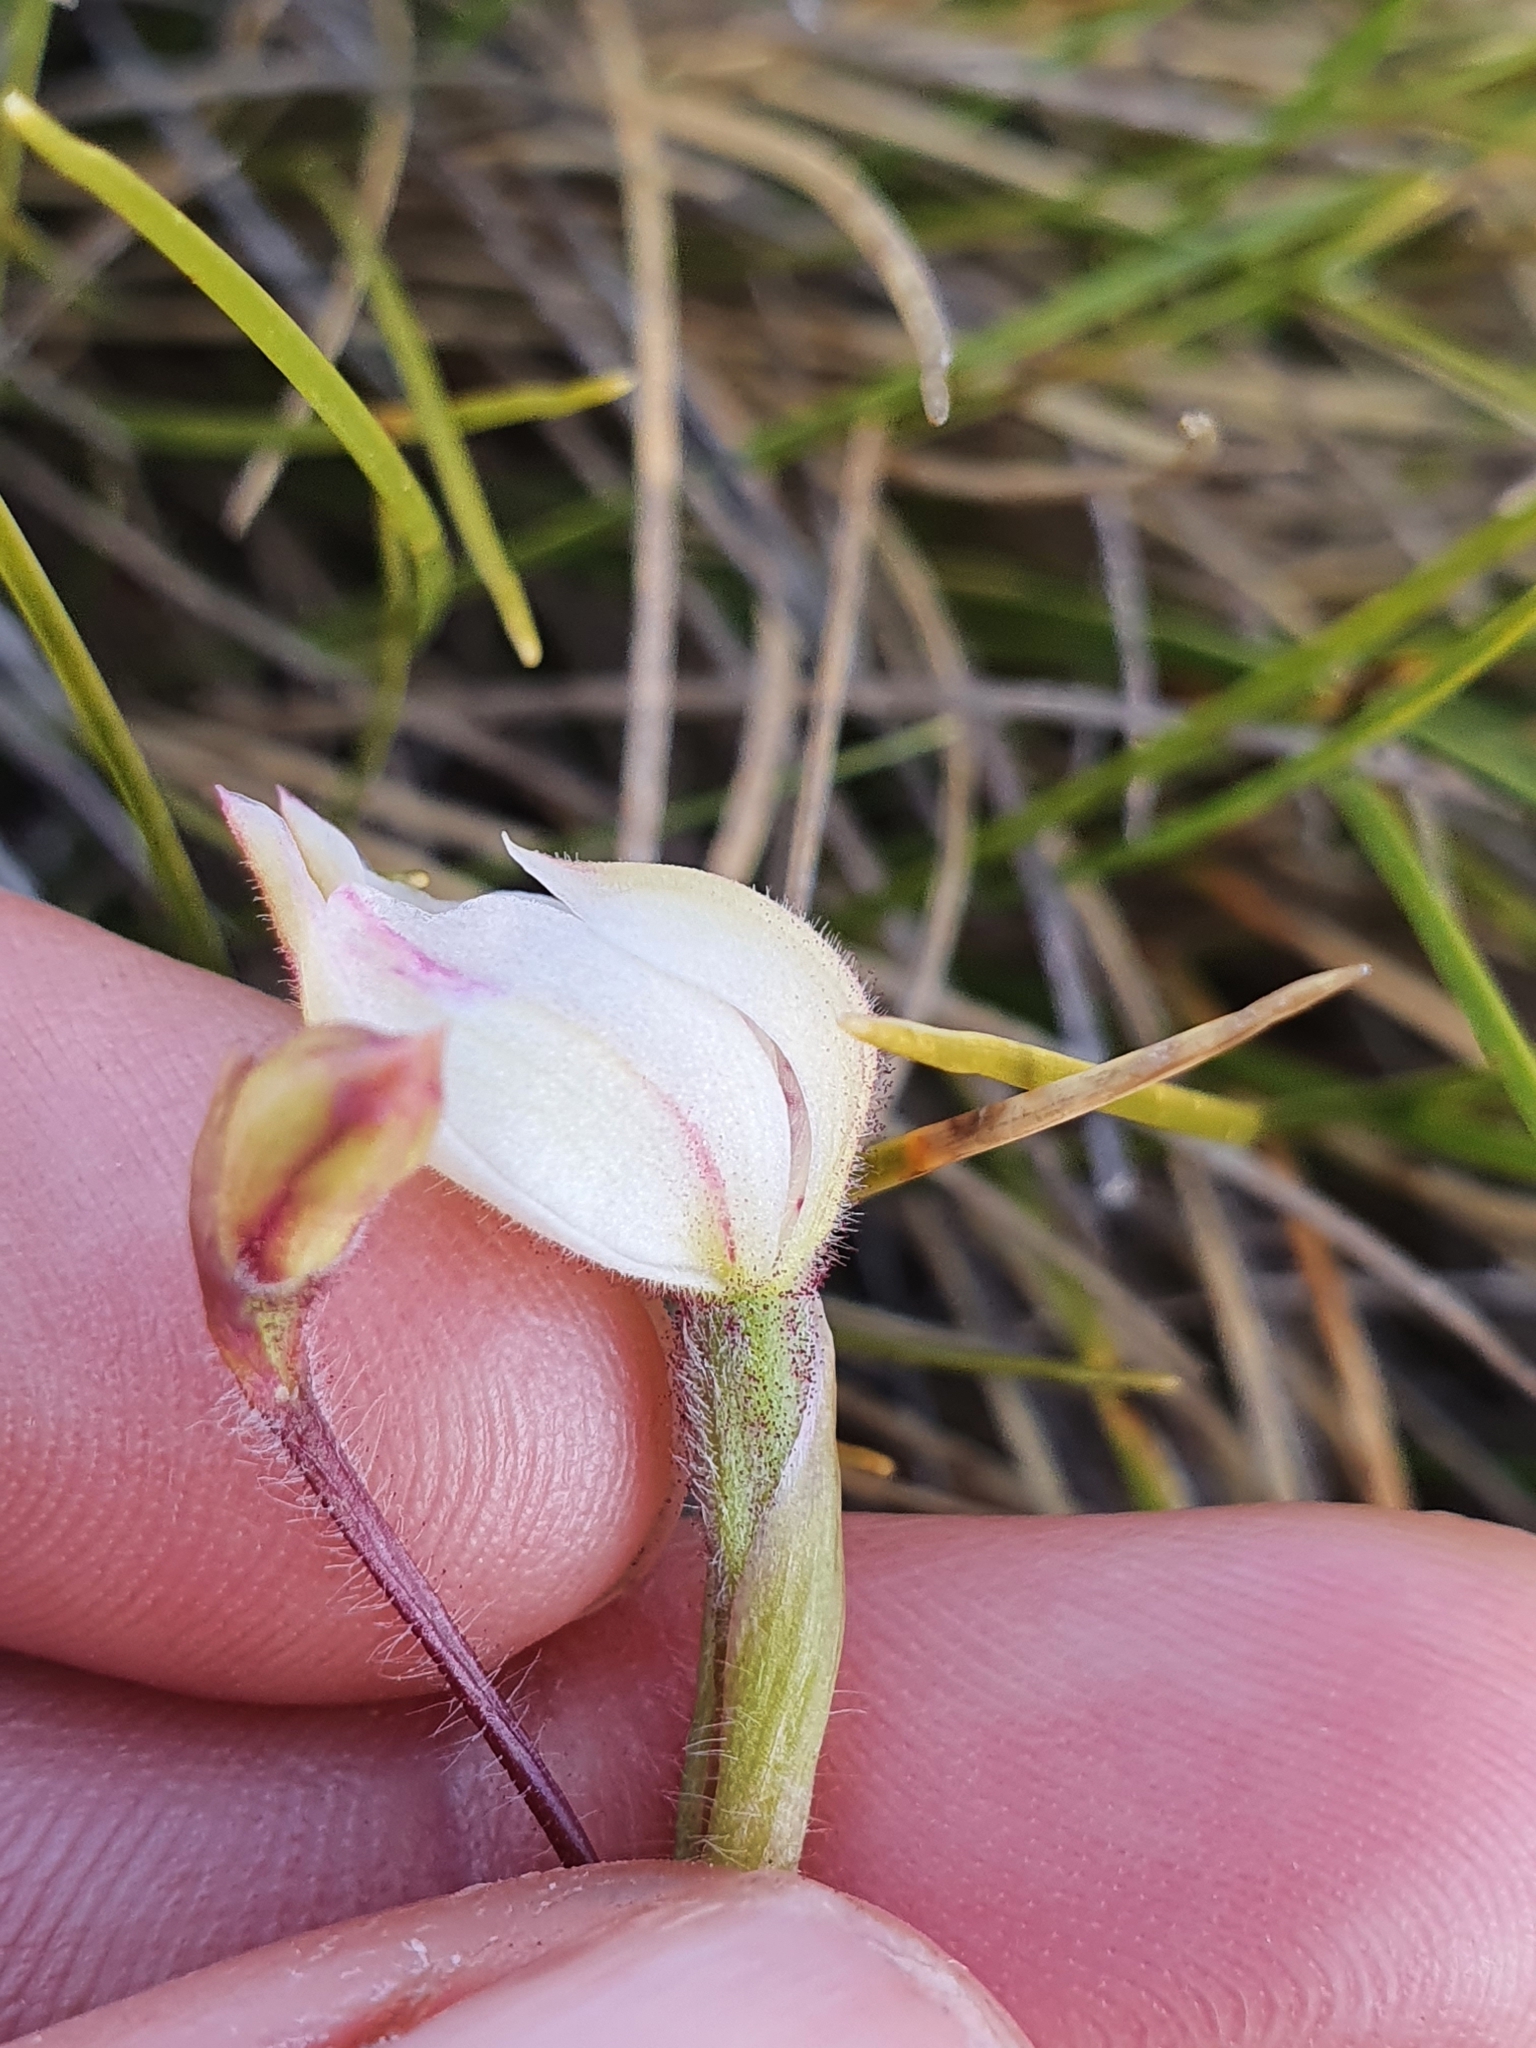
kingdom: Plantae
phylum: Tracheophyta
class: Liliopsida
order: Asparagales
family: Orchidaceae
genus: Caladenia
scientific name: Caladenia lyallii
